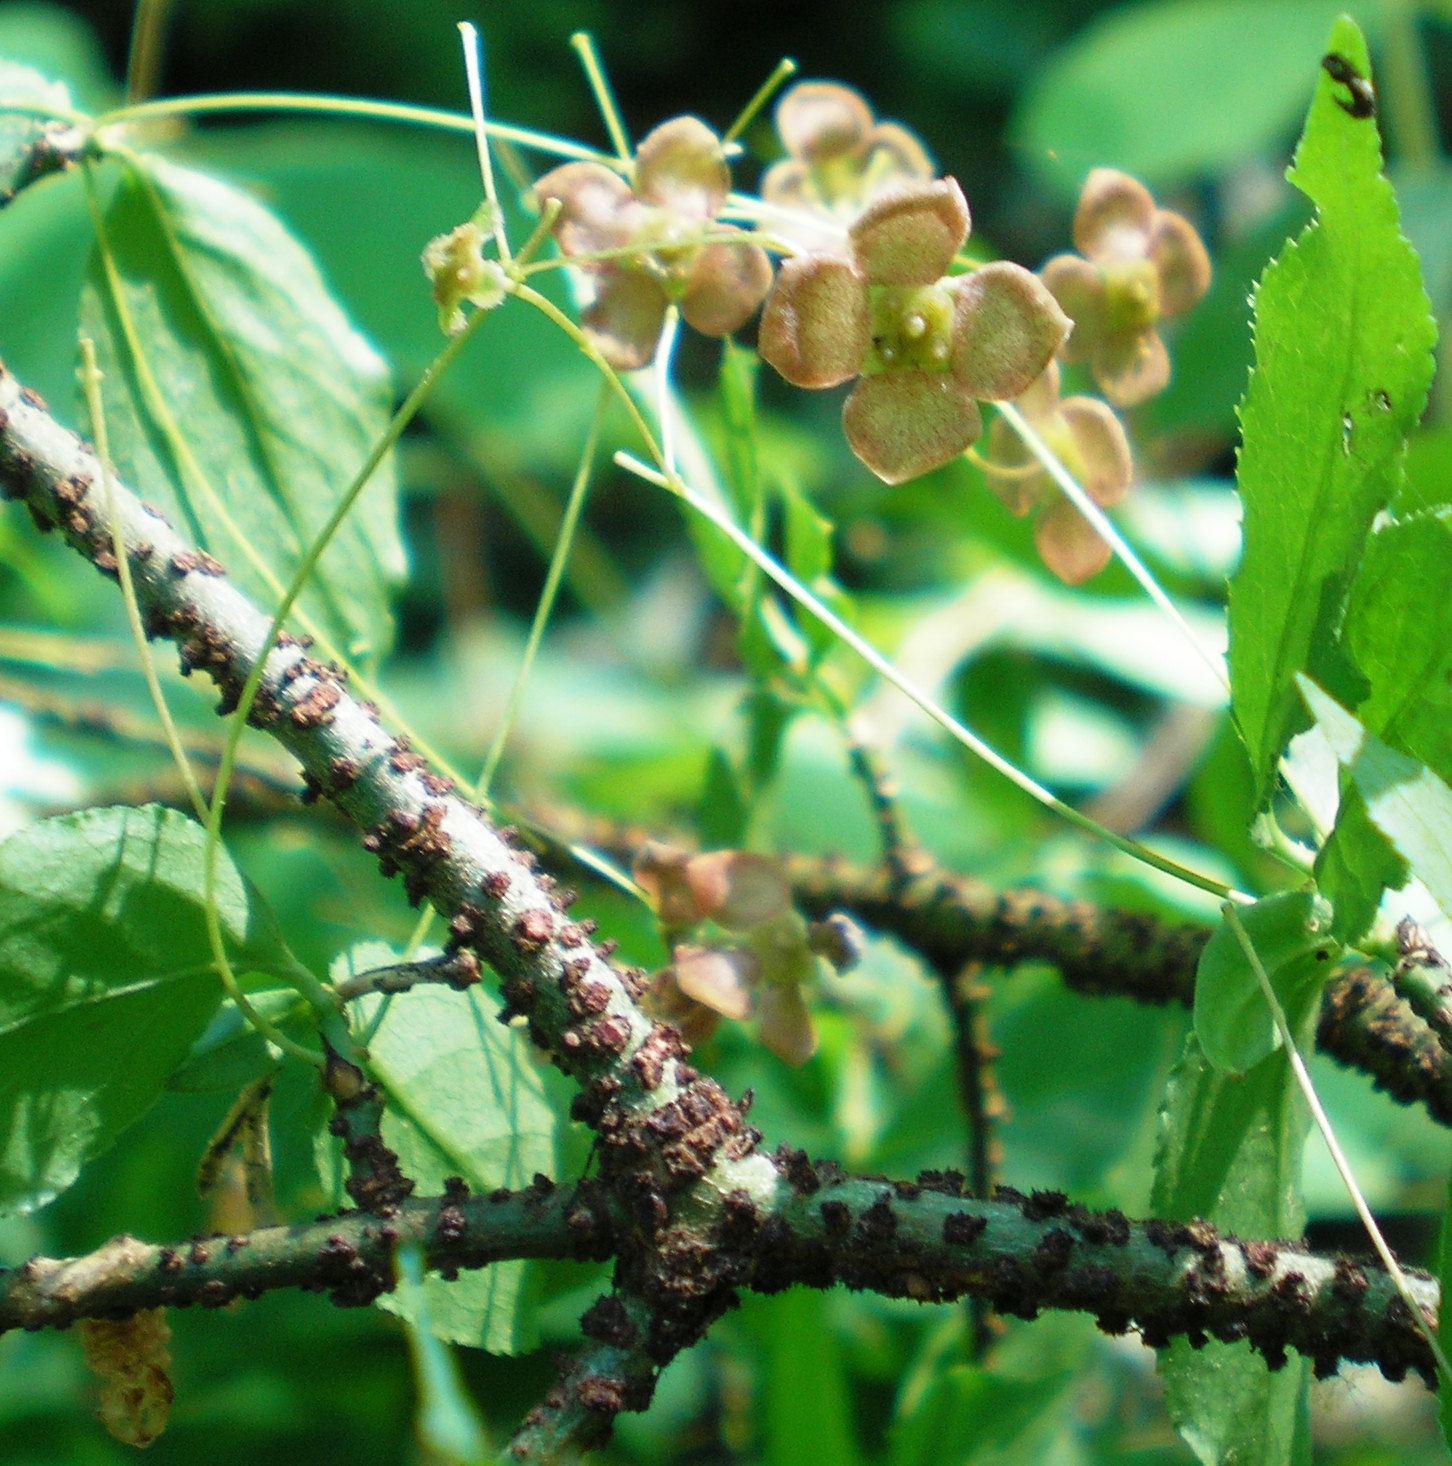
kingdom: Plantae
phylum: Tracheophyta
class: Magnoliopsida
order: Celastrales
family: Celastraceae
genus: Euonymus
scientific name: Euonymus verrucosus
